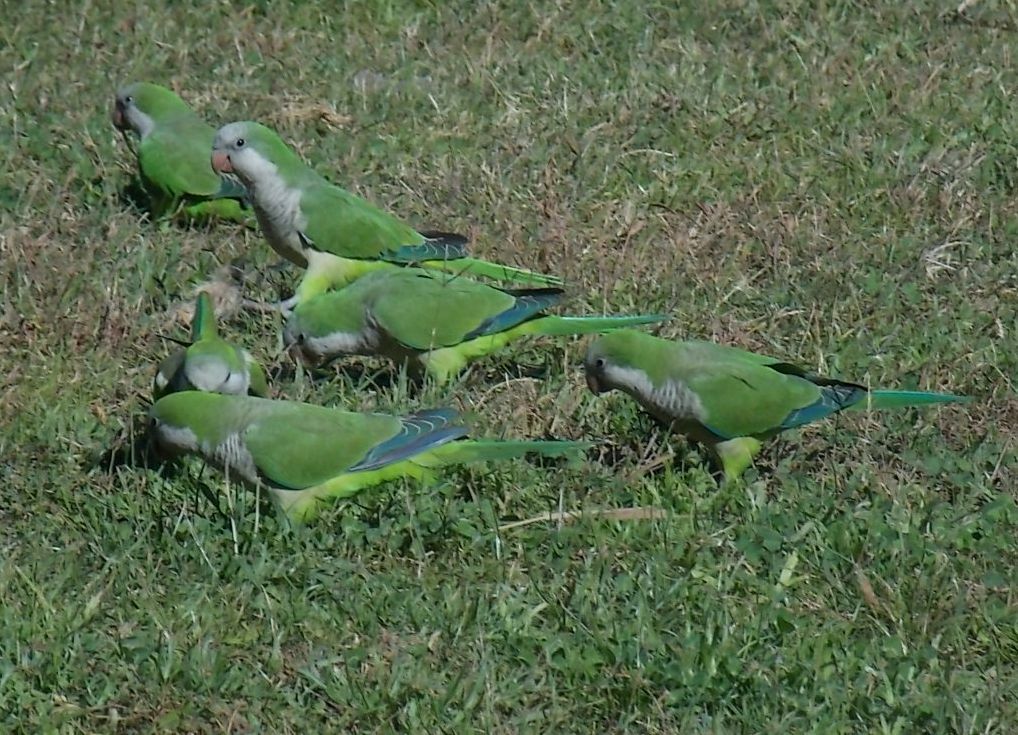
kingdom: Animalia
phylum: Chordata
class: Aves
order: Psittaciformes
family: Psittacidae
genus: Myiopsitta
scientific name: Myiopsitta monachus
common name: Monk parakeet
